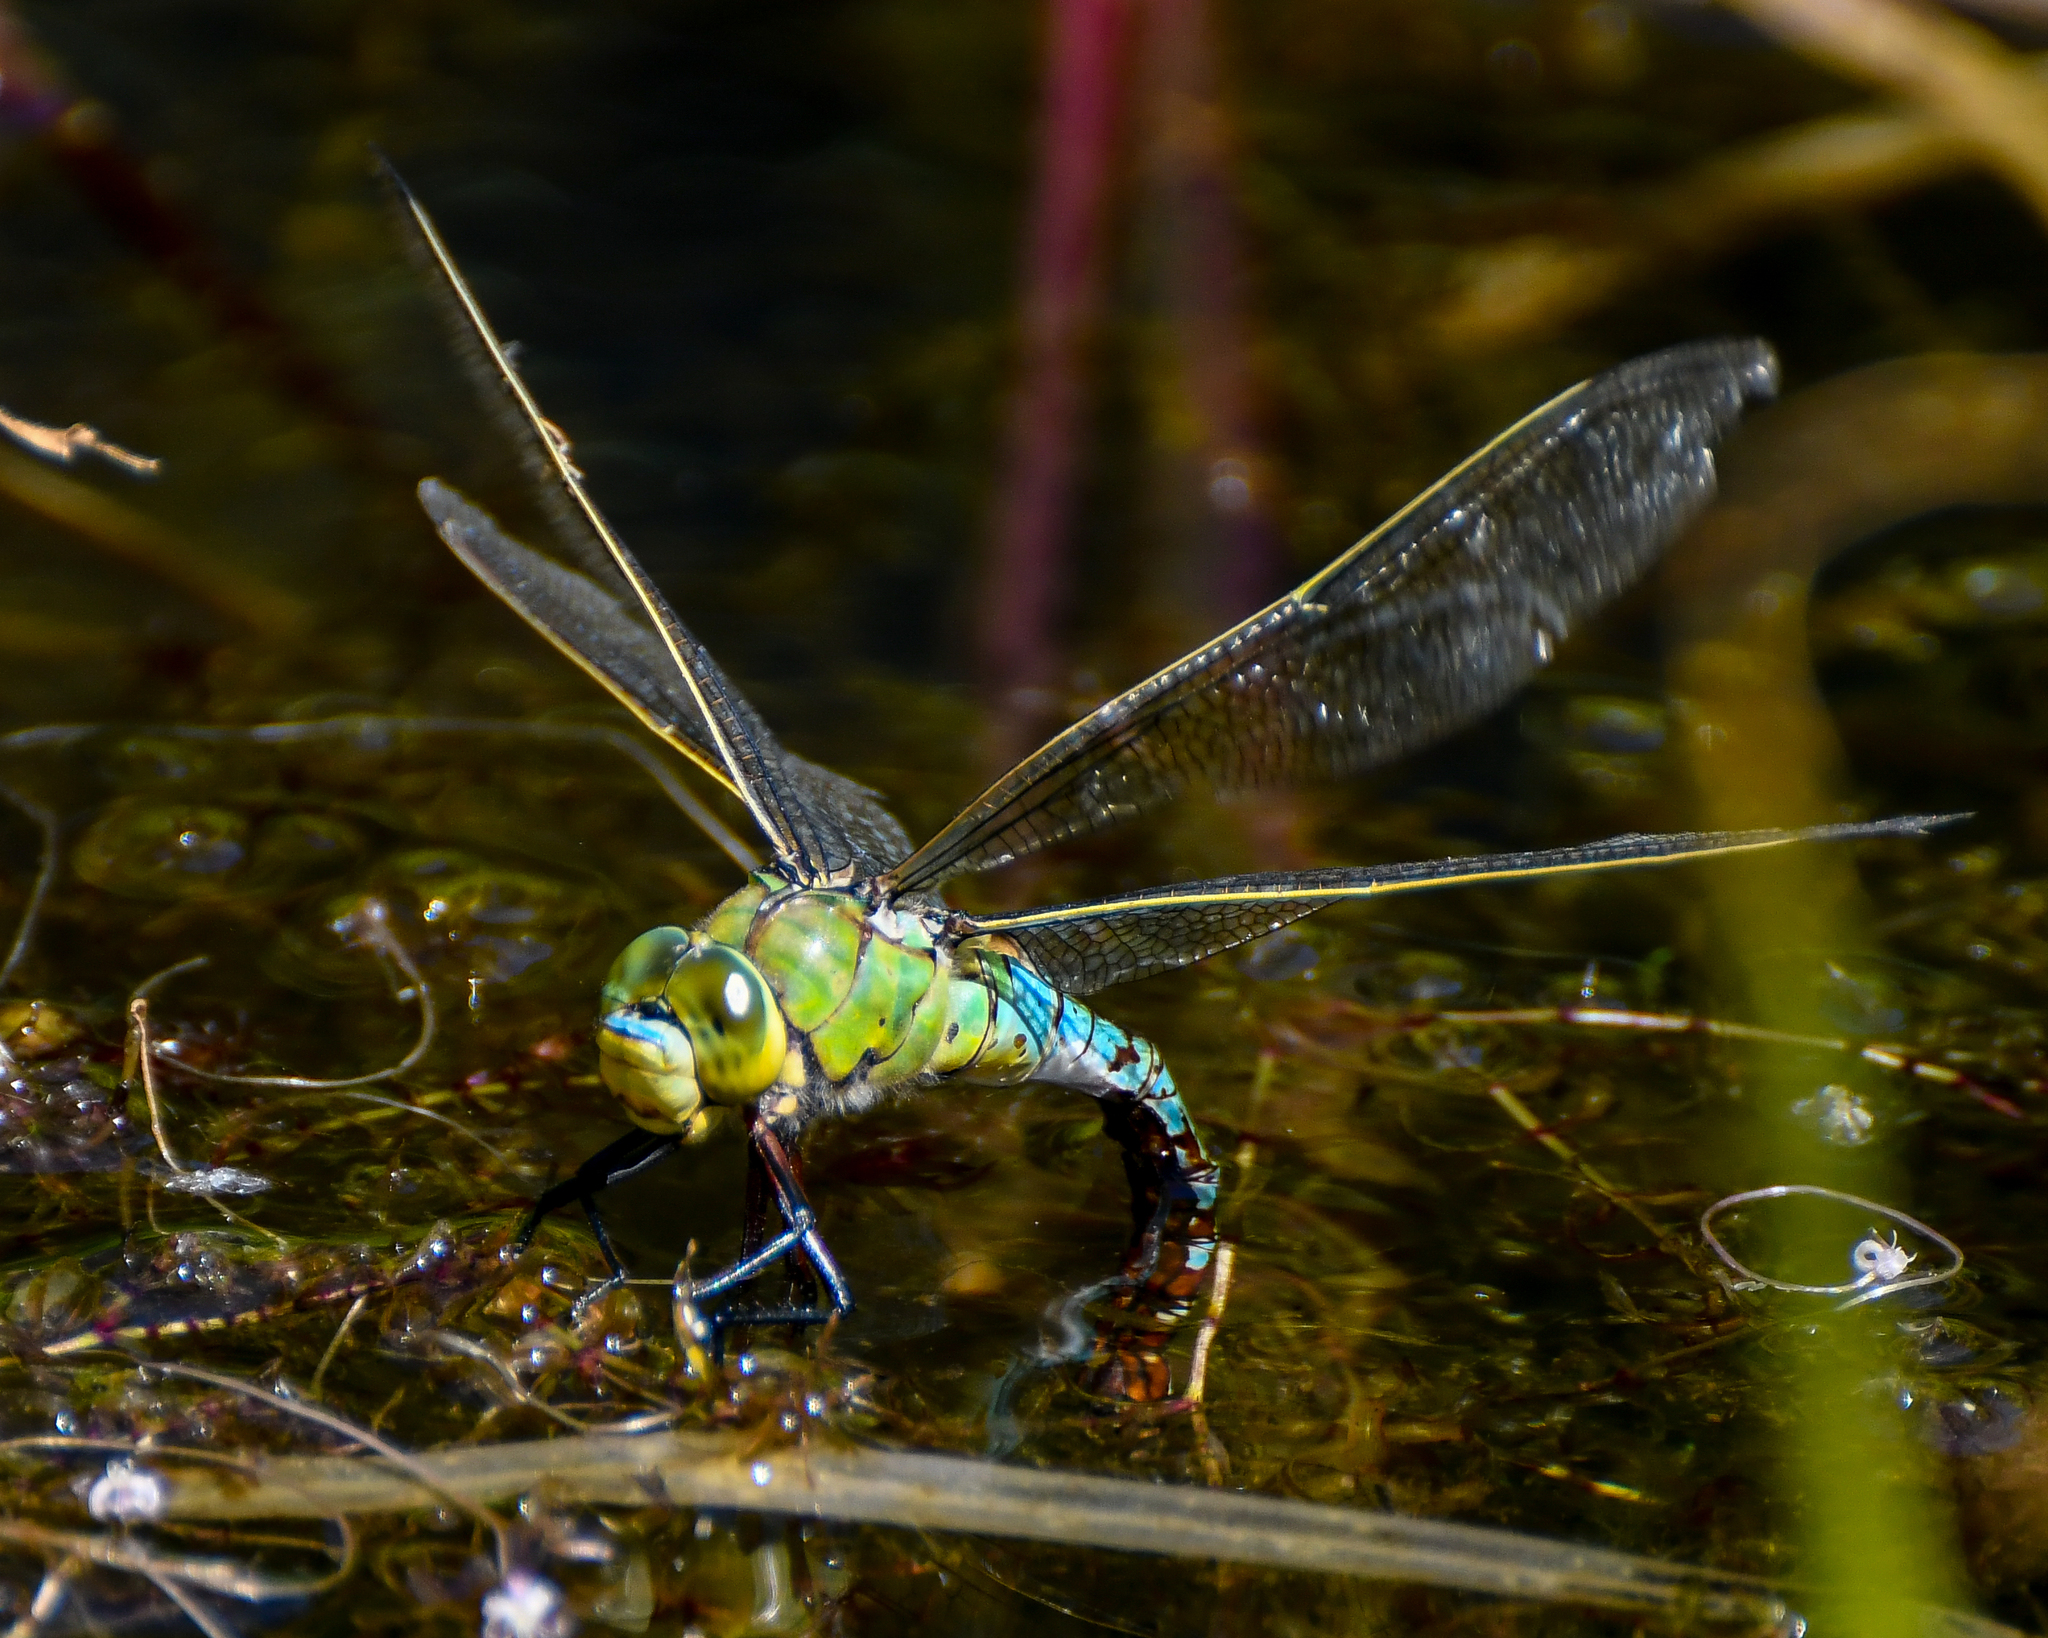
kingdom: Animalia
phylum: Arthropoda
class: Insecta
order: Odonata
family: Aeshnidae
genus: Anax
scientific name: Anax imperator
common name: Emperor dragonfly
